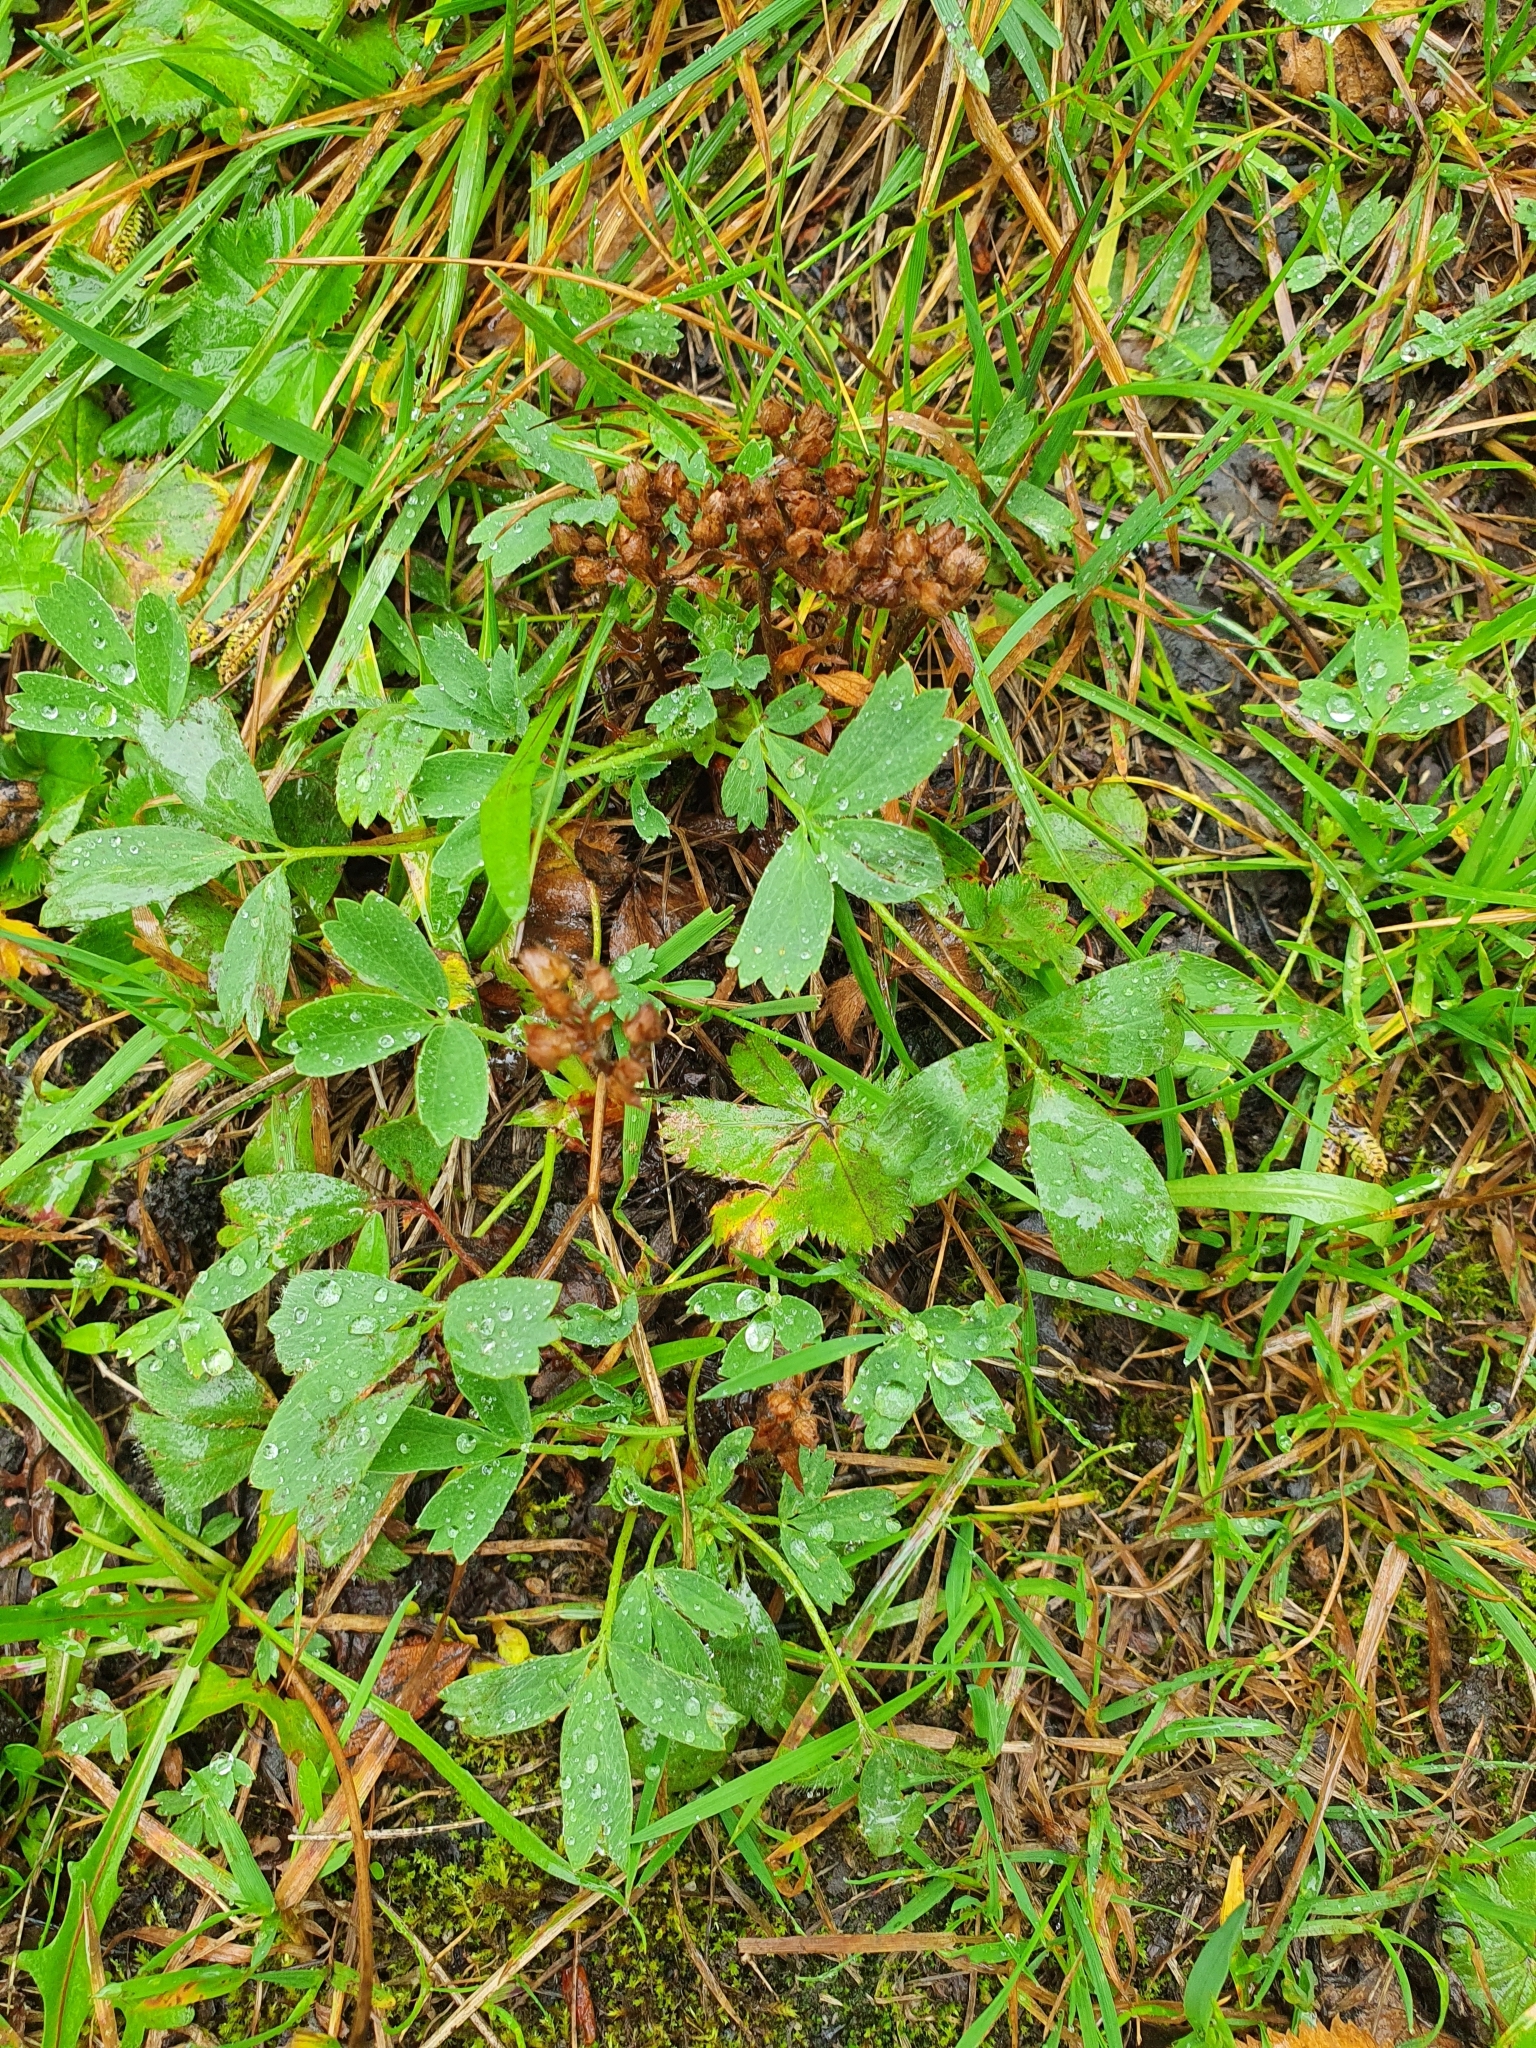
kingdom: Plantae
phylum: Tracheophyta
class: Magnoliopsida
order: Rosales
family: Rosaceae
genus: Sibbaldia
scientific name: Sibbaldia procumbens
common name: Creeping sibbaldia
